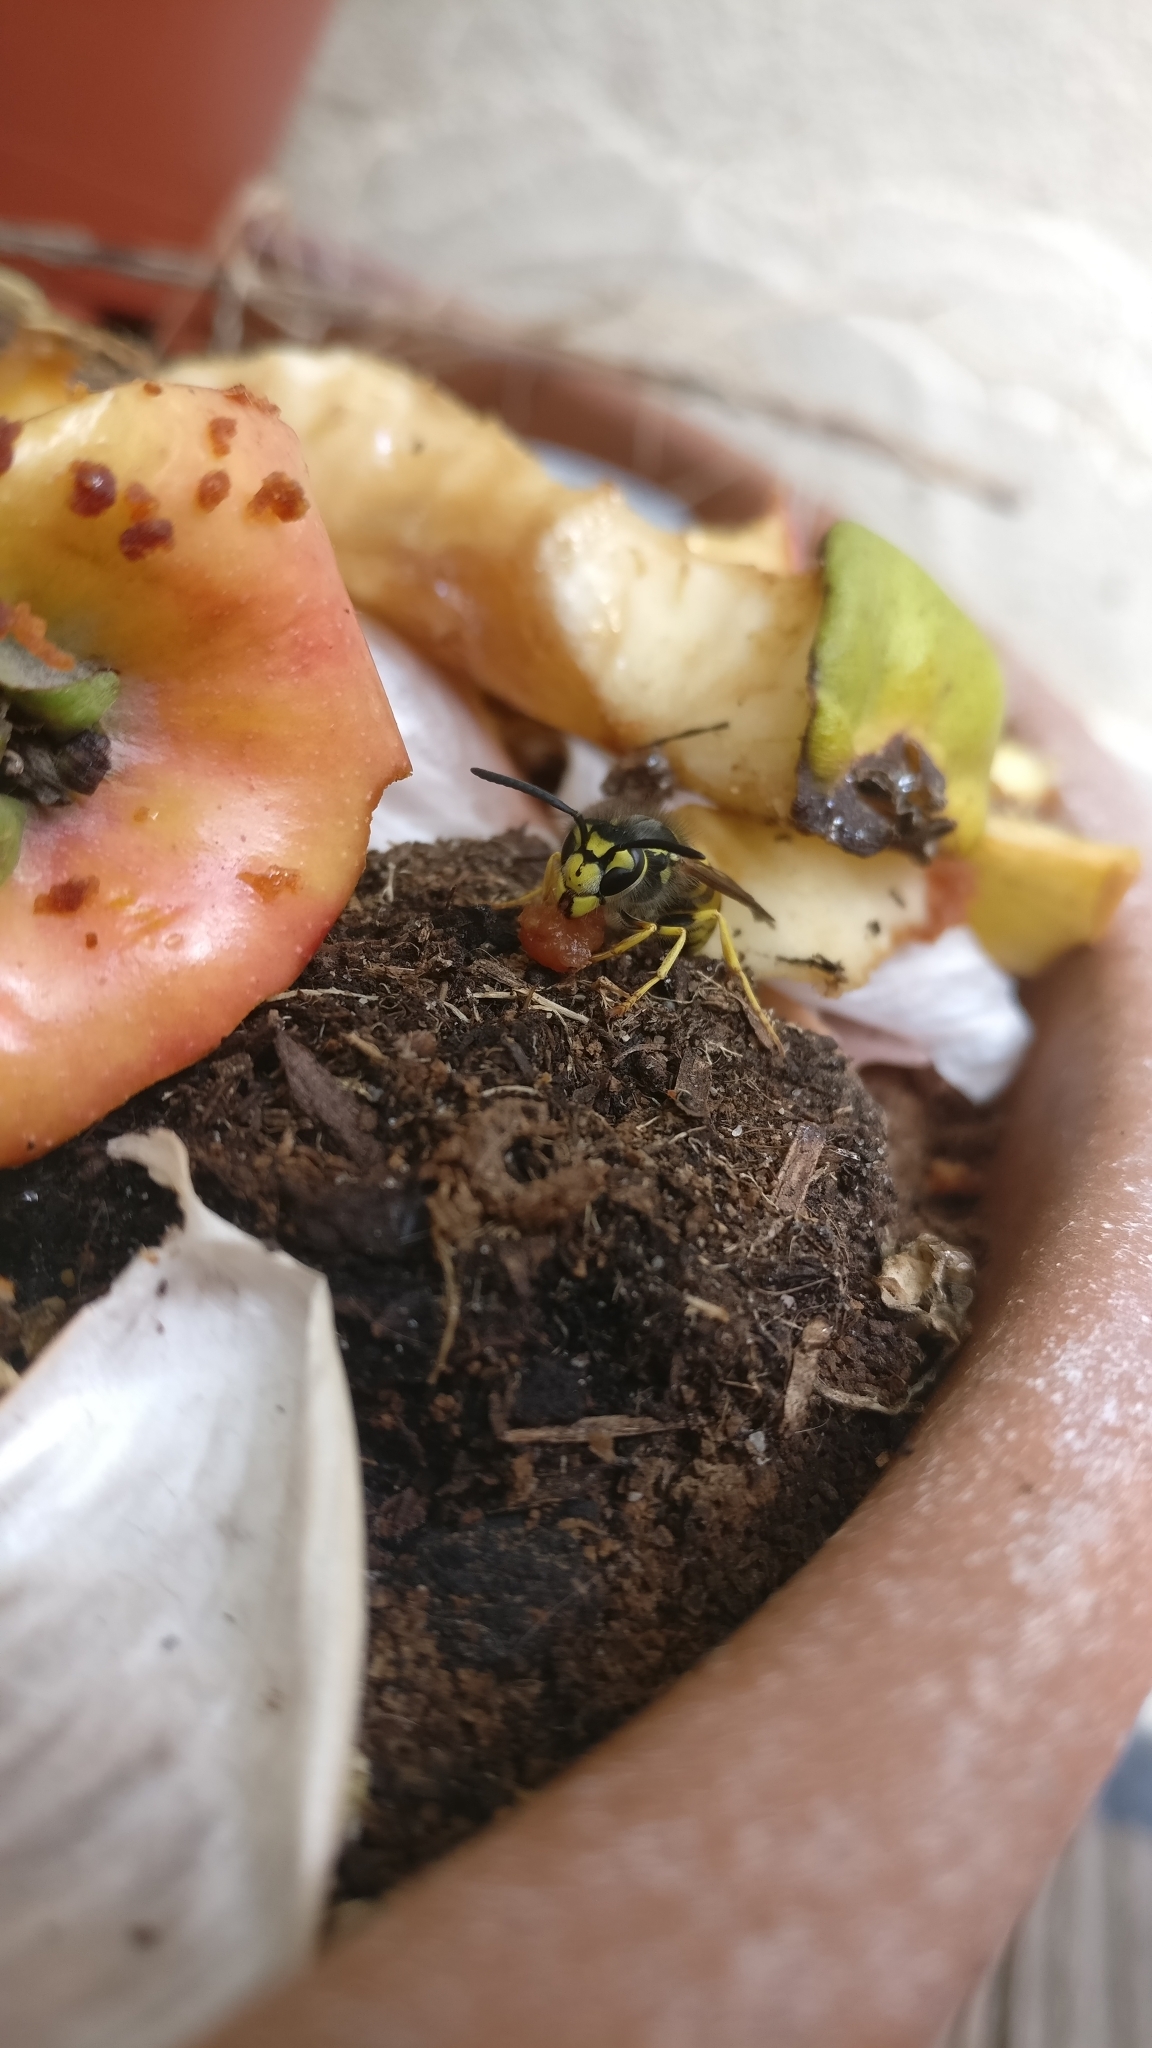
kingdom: Animalia
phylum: Arthropoda
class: Insecta
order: Hymenoptera
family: Vespidae
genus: Vespula
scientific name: Vespula germanica
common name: German wasp
